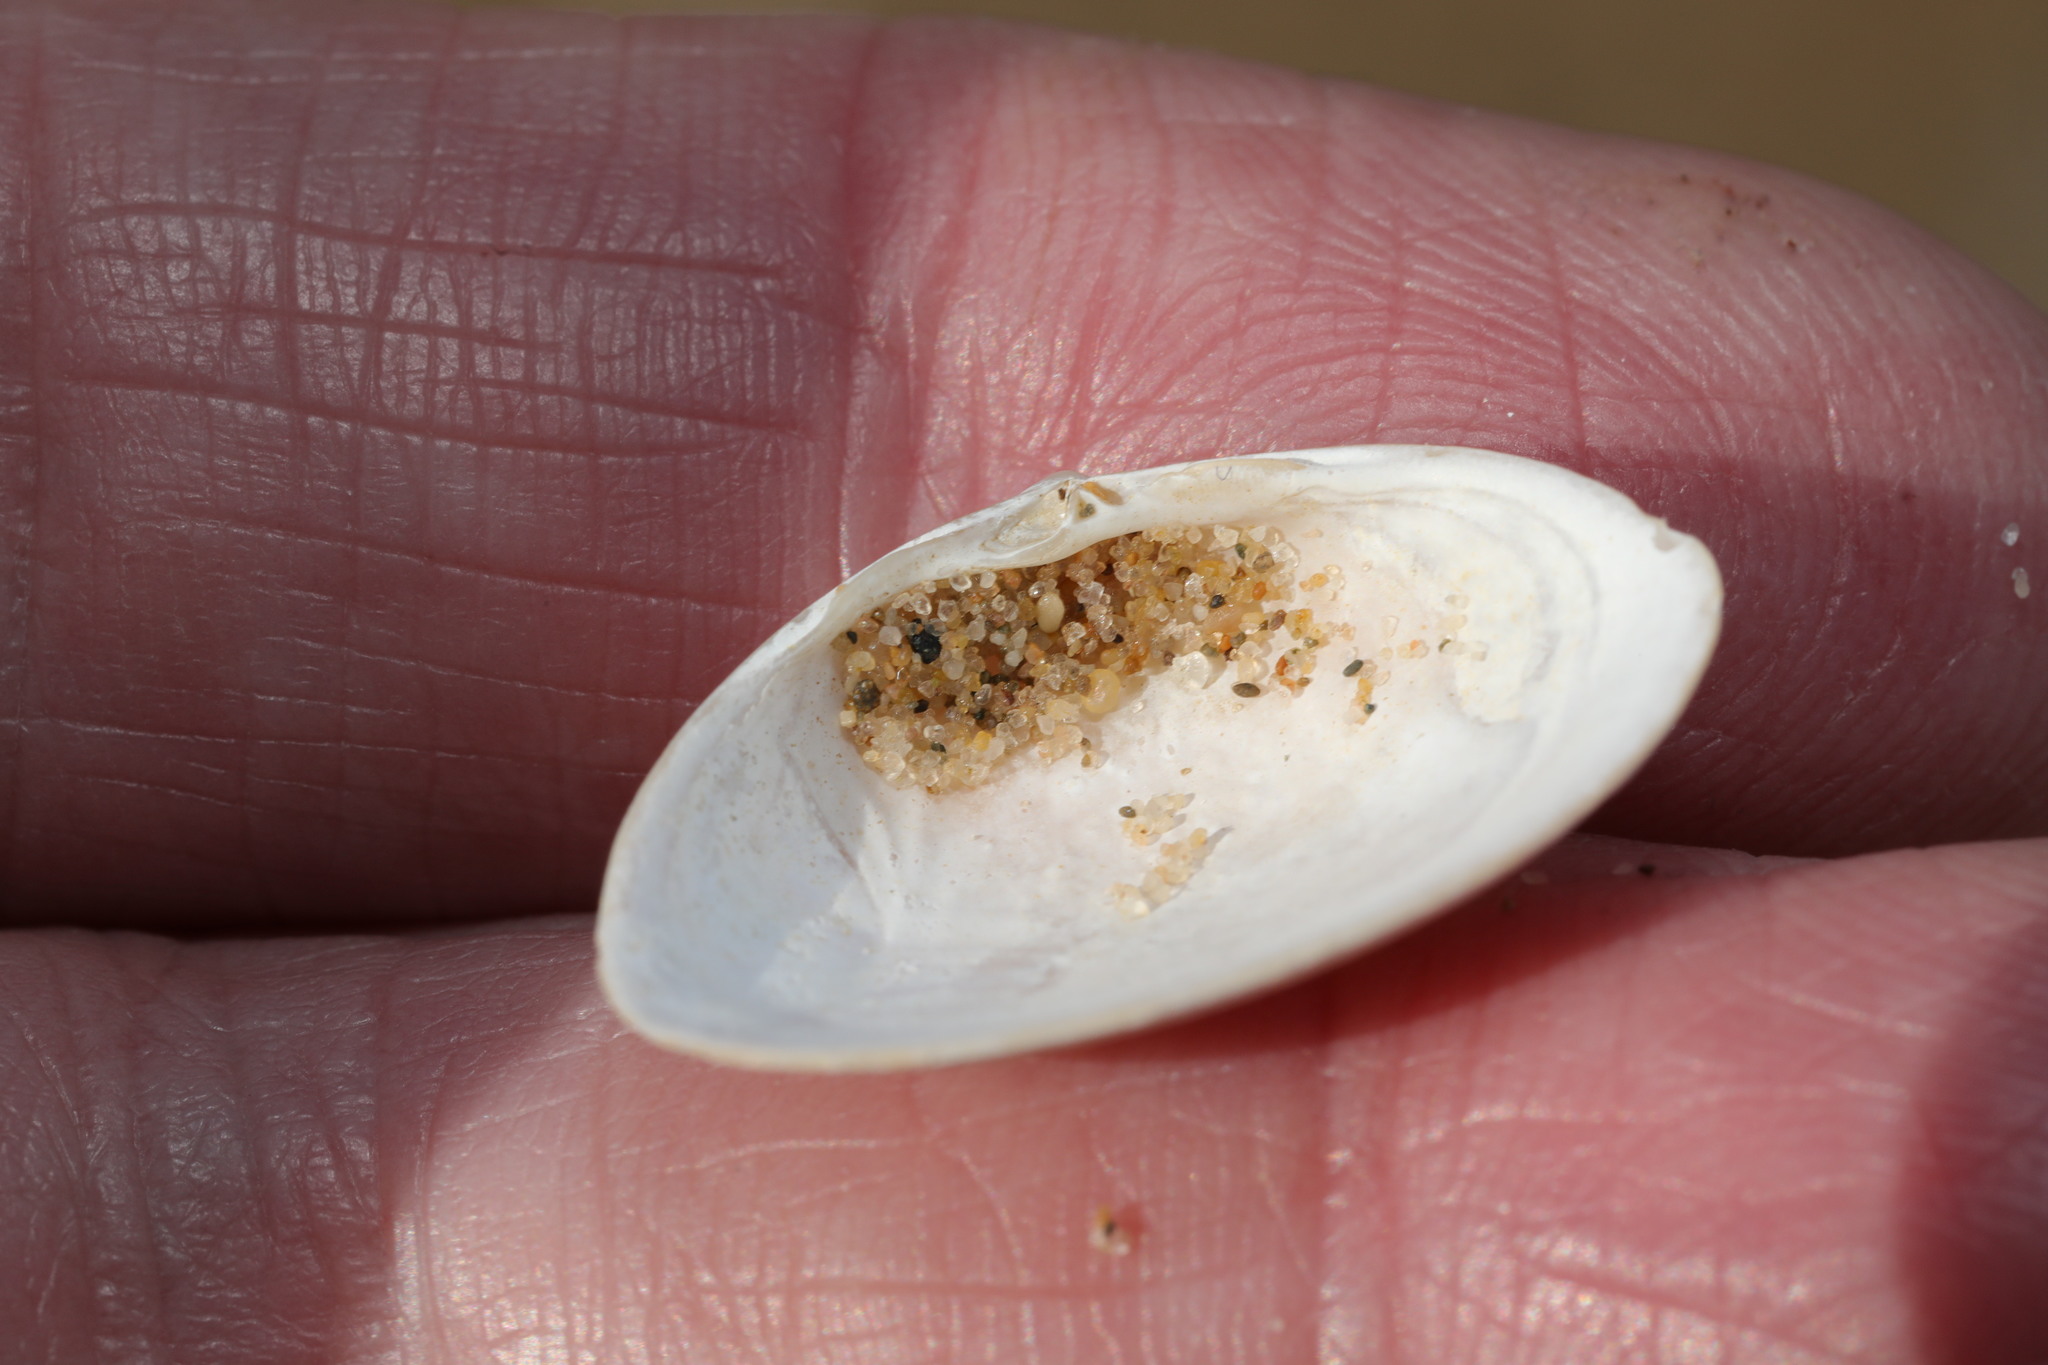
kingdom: Animalia
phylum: Mollusca
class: Bivalvia
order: Venerida
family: Mactridae
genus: Spisula
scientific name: Spisula elliptica
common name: Elliptic trough shell
